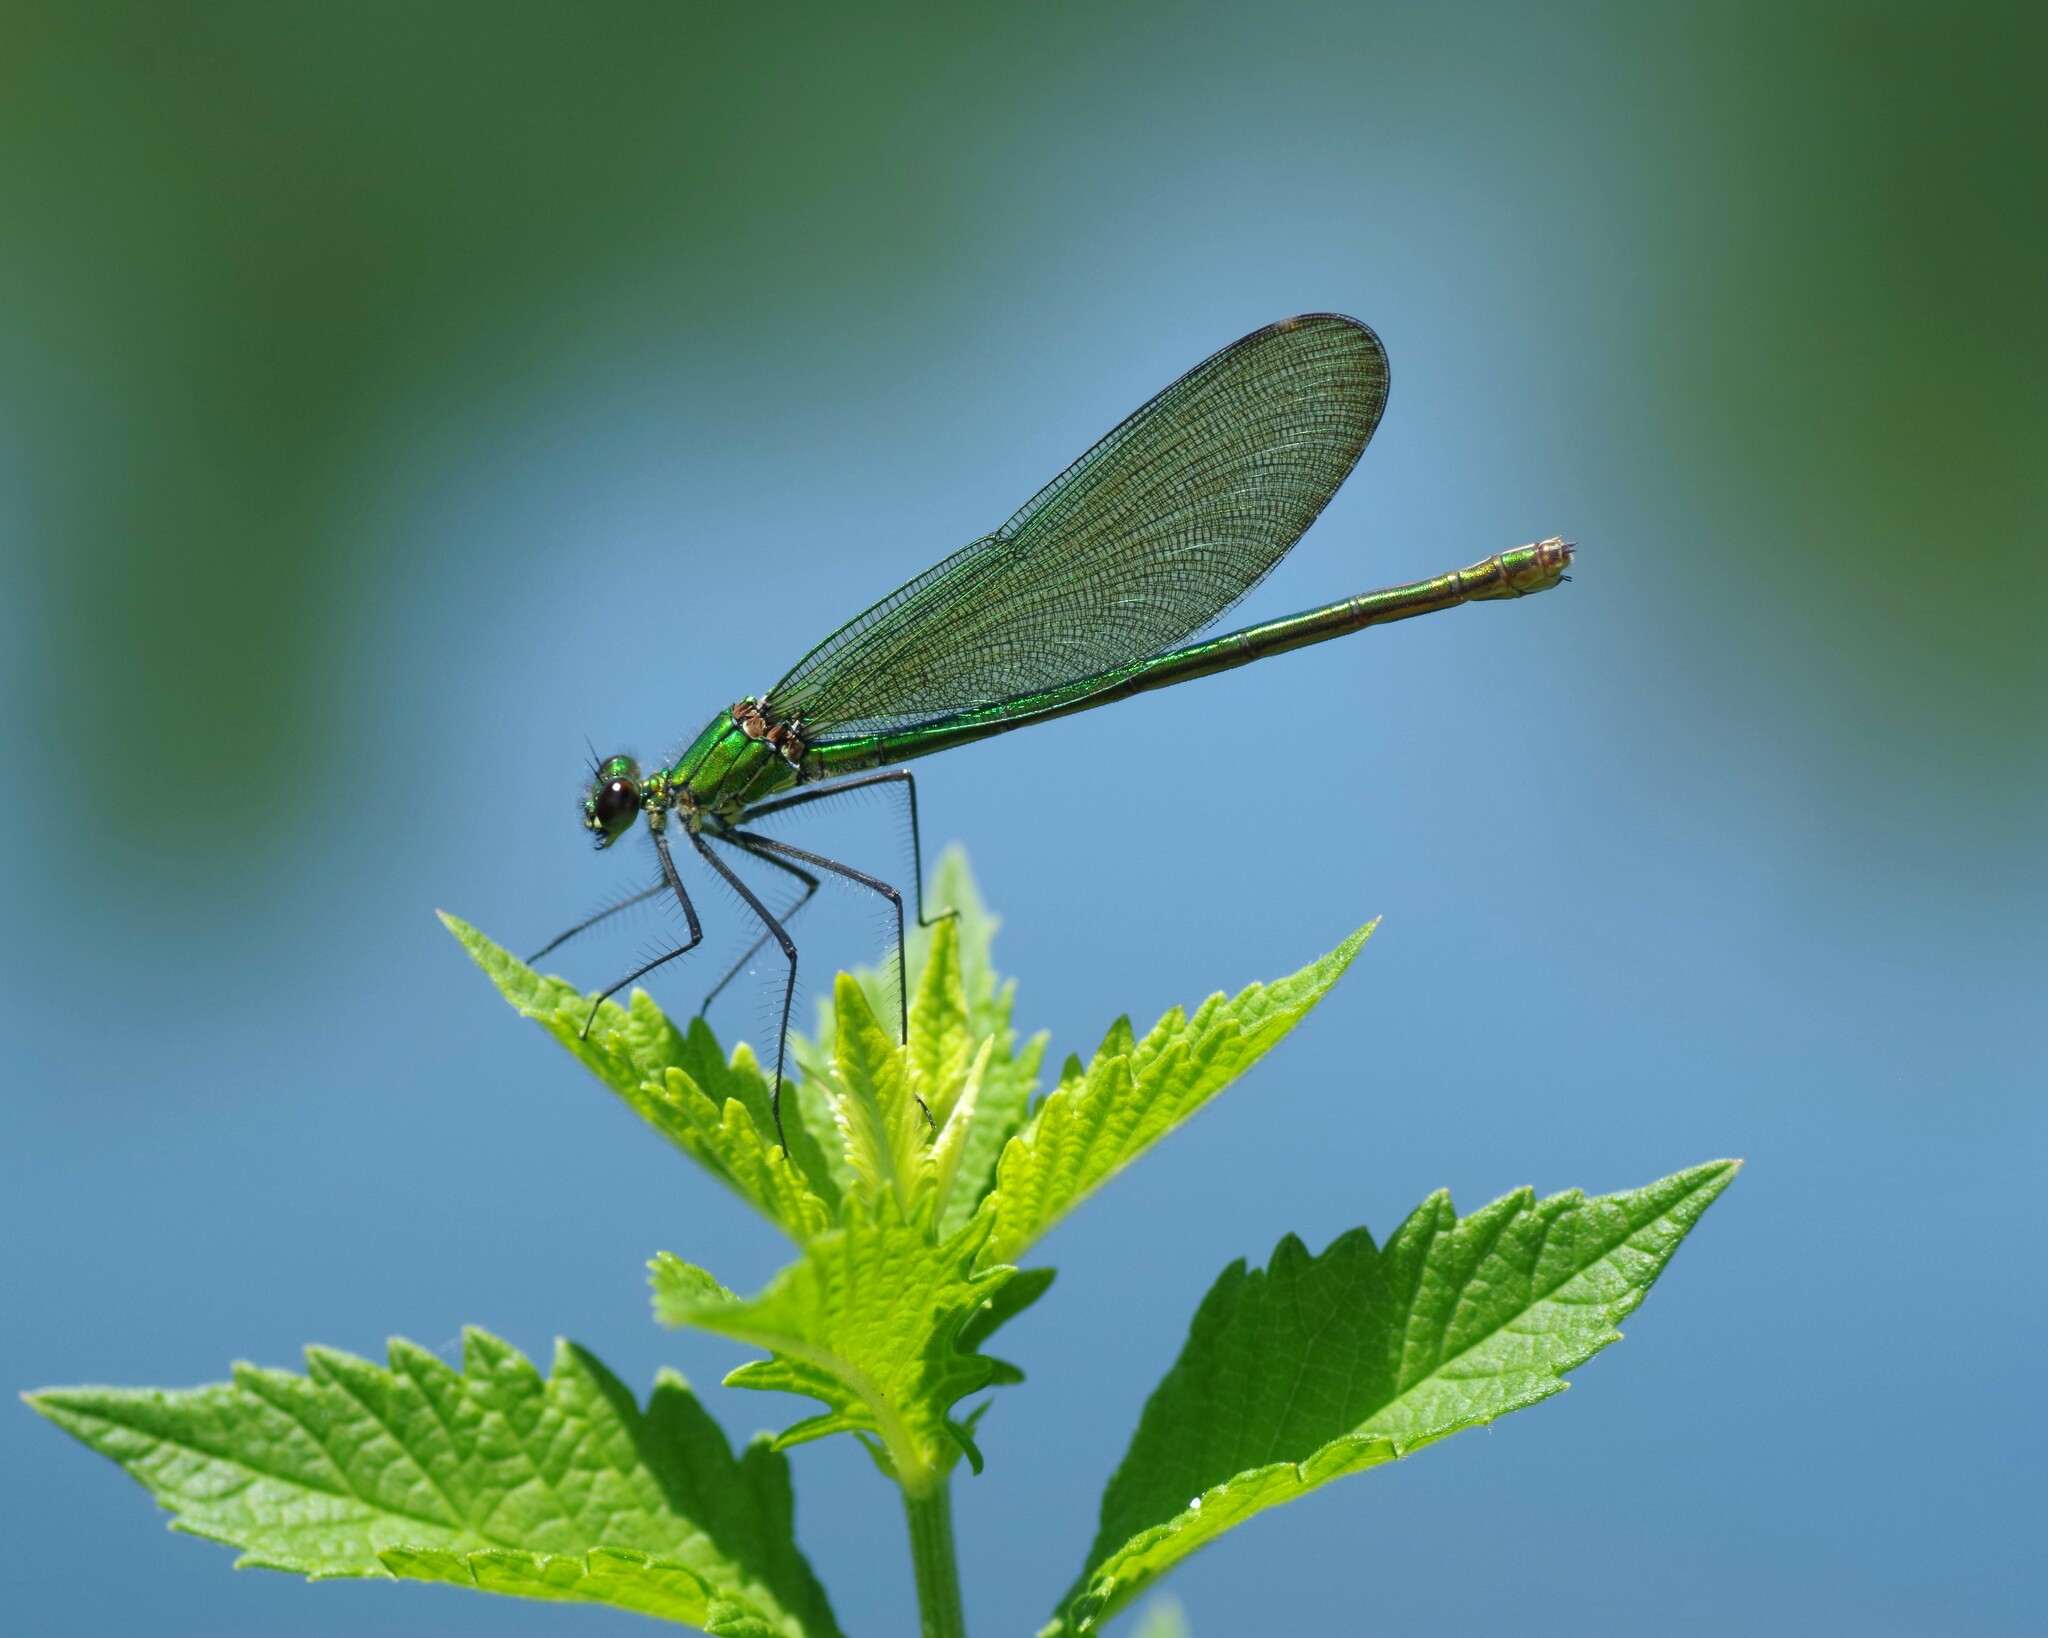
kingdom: Animalia
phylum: Arthropoda
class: Insecta
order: Odonata
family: Calopterygidae
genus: Calopteryx
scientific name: Calopteryx splendens
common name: Banded demoiselle
